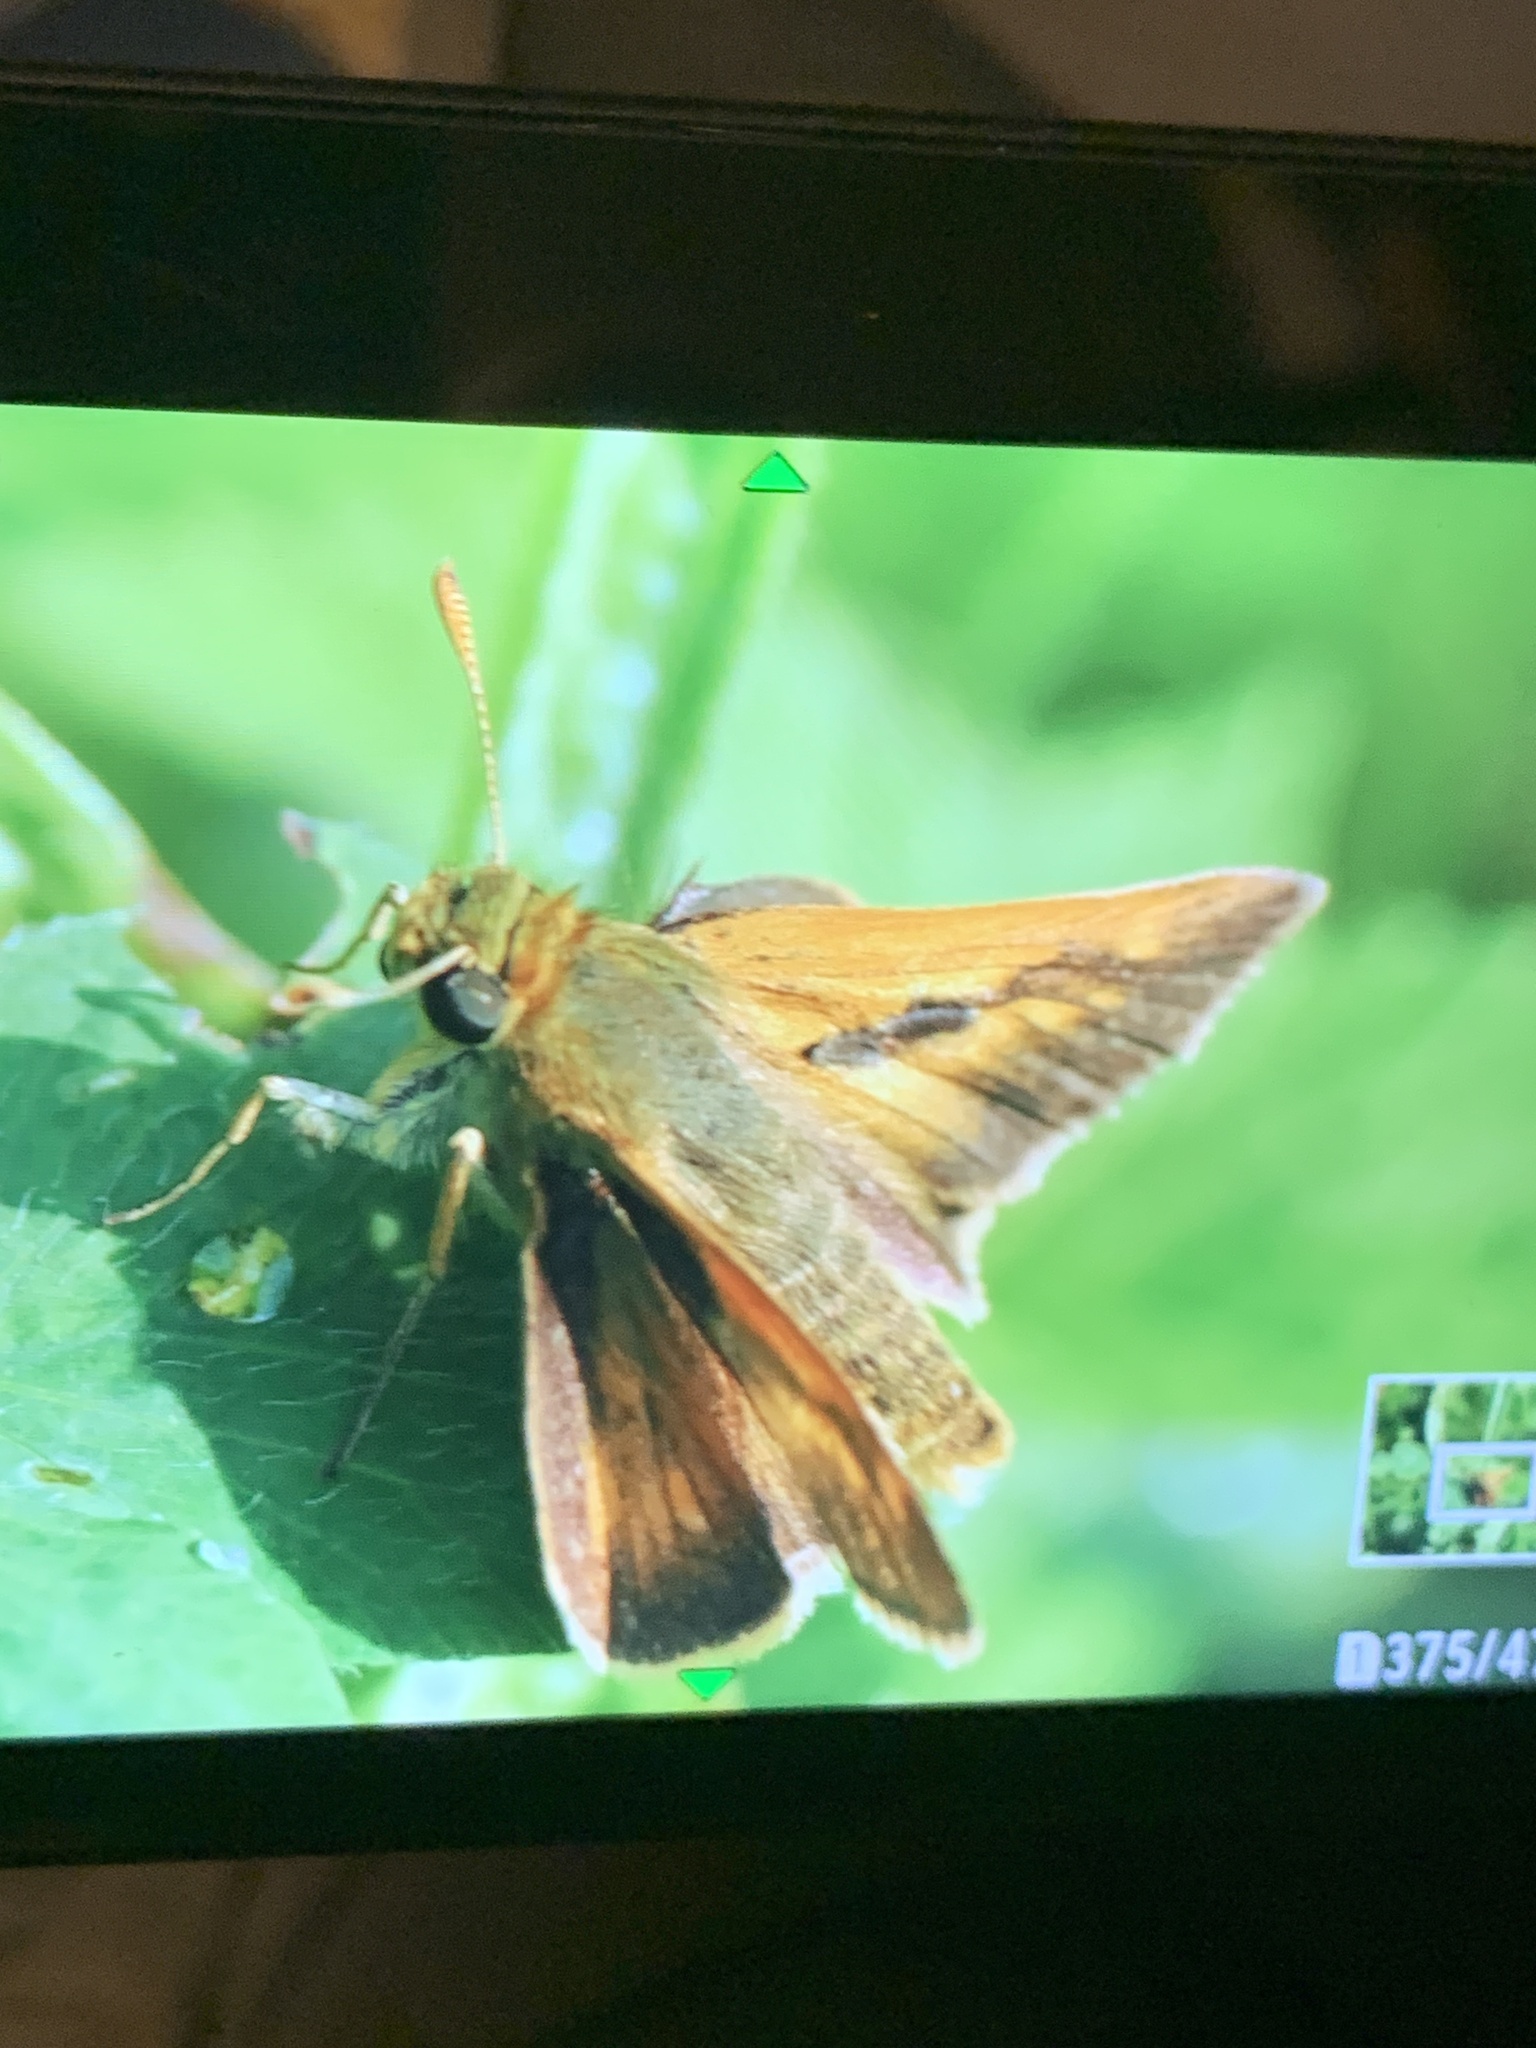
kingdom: Animalia
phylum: Arthropoda
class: Insecta
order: Lepidoptera
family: Hesperiidae
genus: Polites
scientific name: Polites mystic
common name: Long dash
